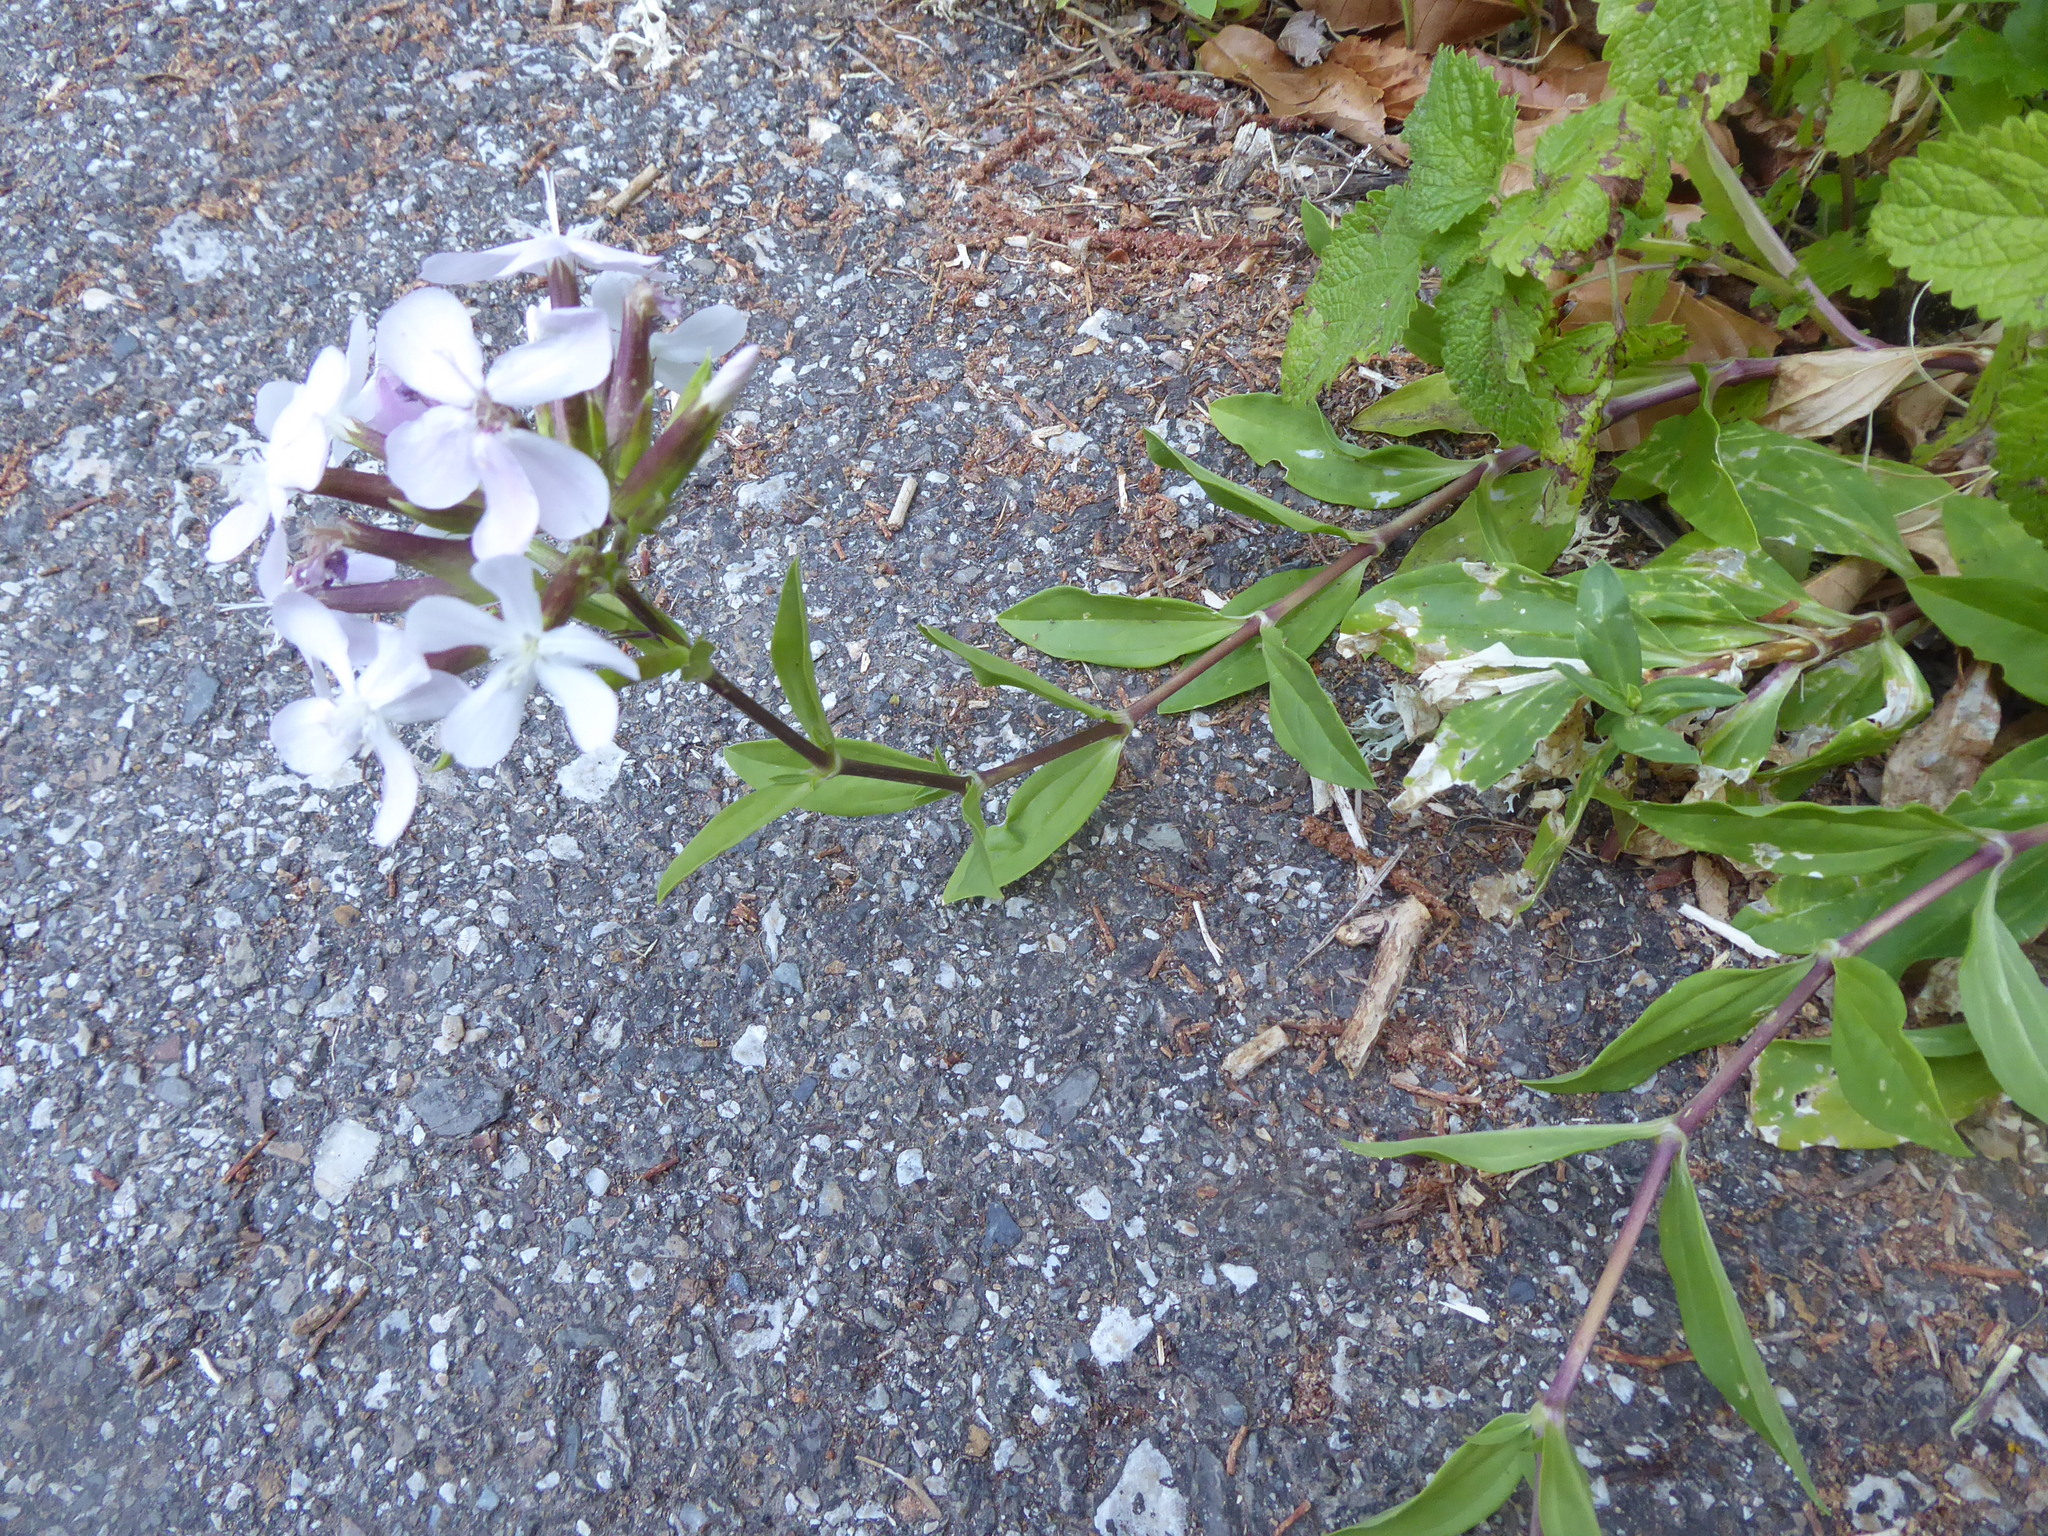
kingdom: Plantae
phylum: Tracheophyta
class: Magnoliopsida
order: Caryophyllales
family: Caryophyllaceae
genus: Saponaria
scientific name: Saponaria officinalis
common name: Soapwort
